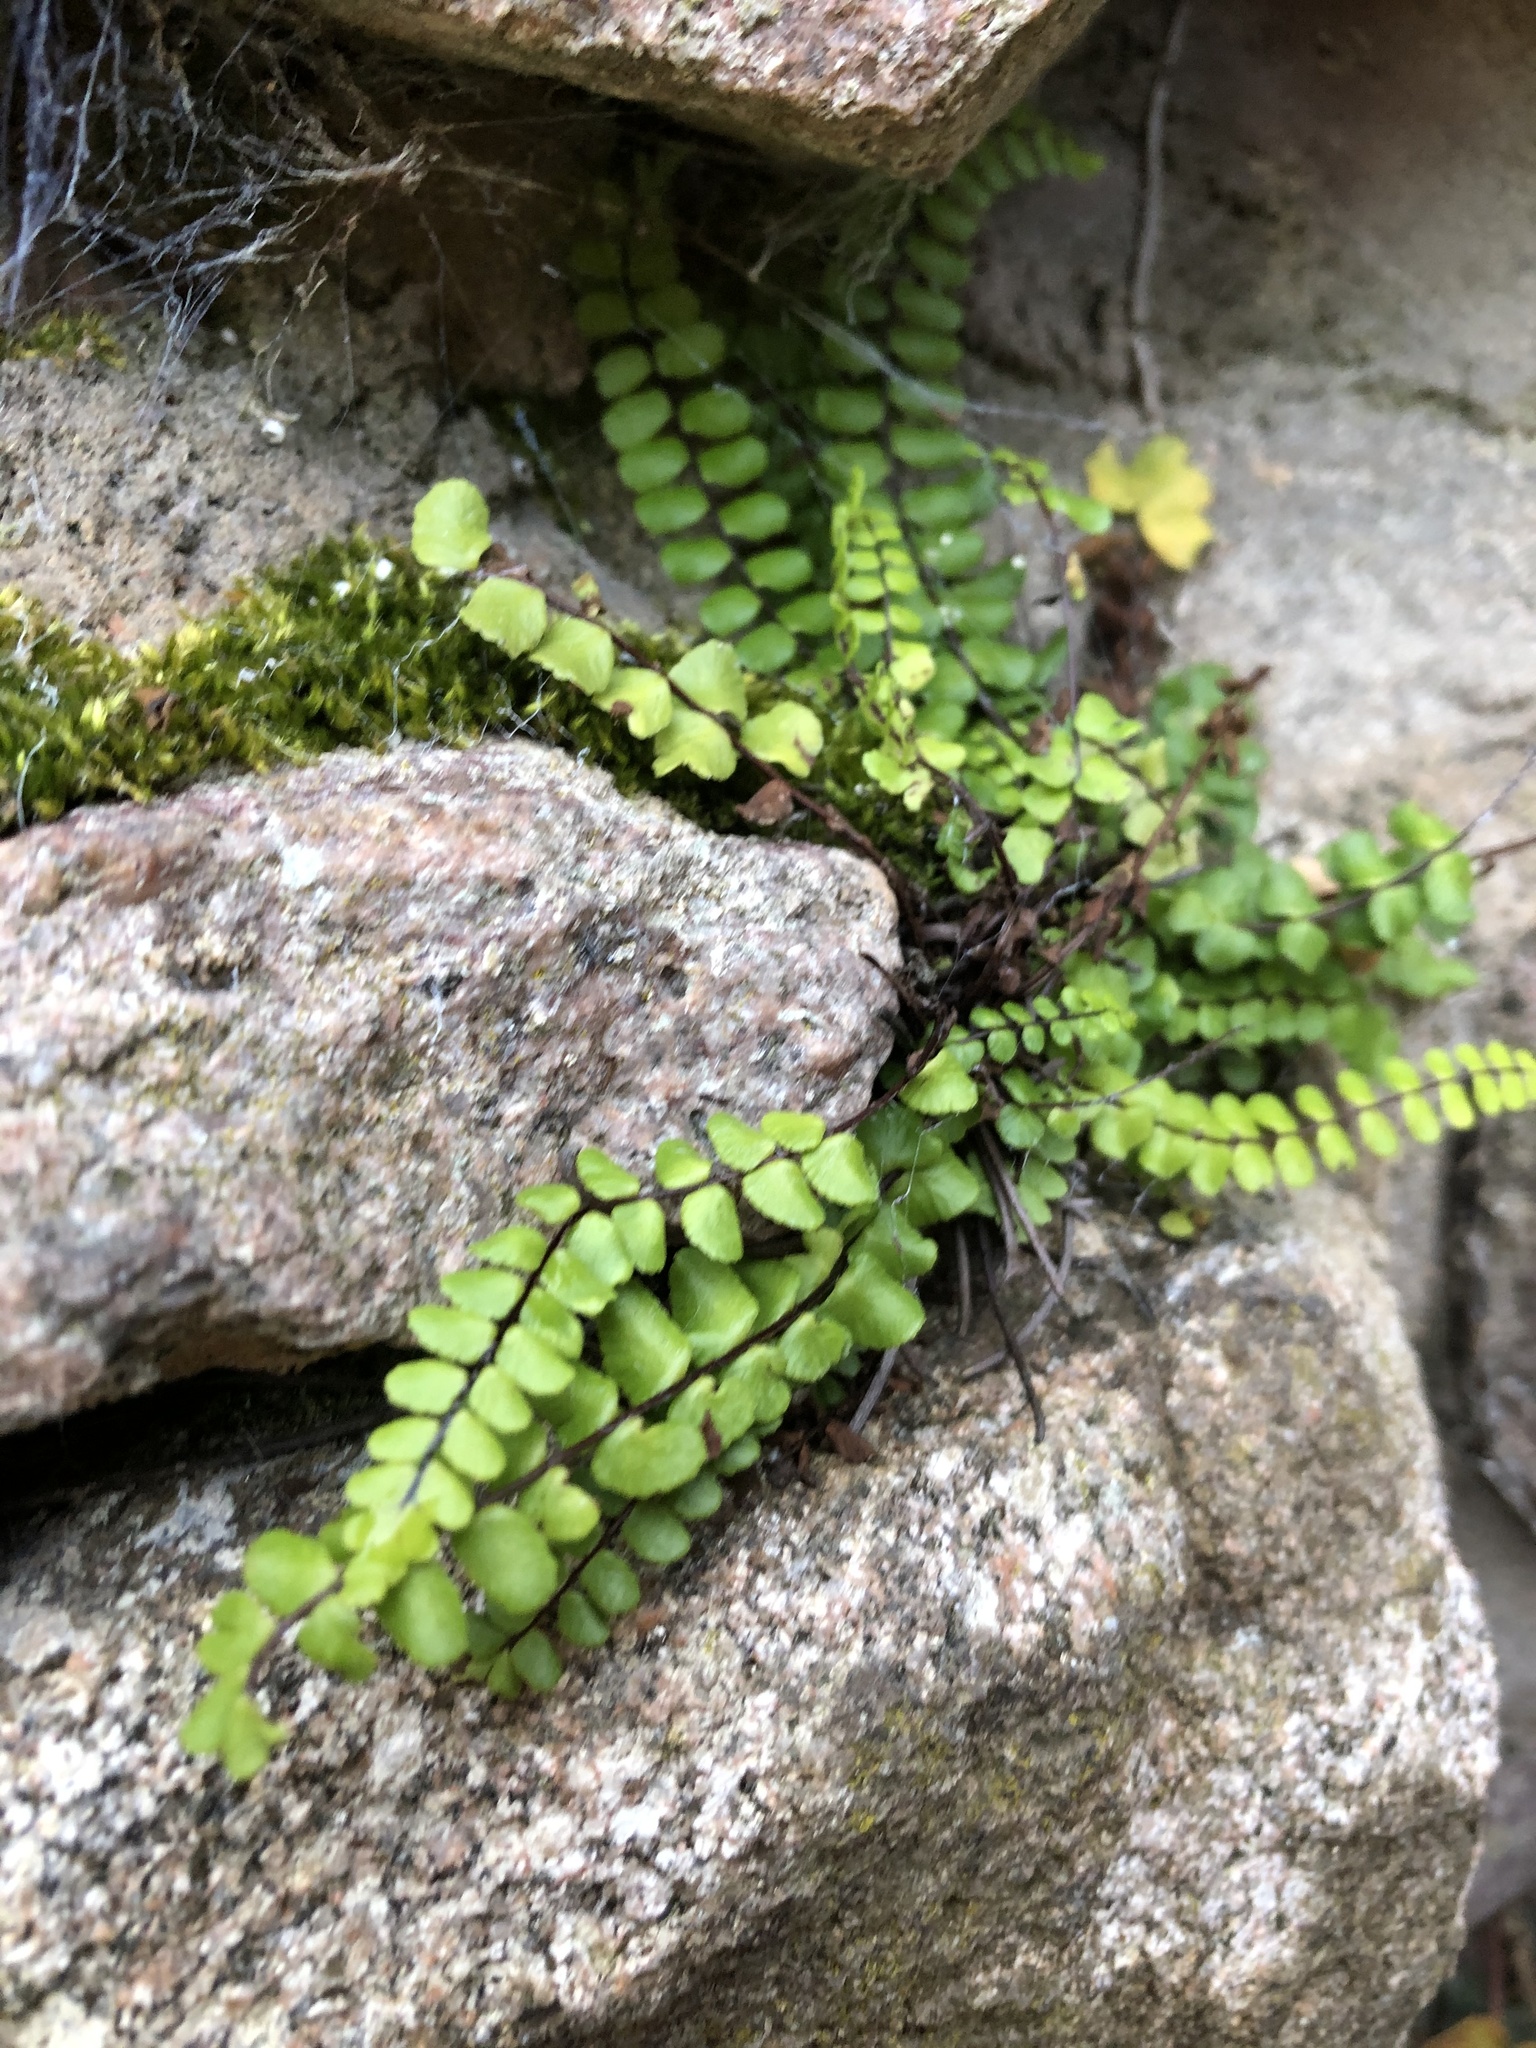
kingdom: Plantae
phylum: Tracheophyta
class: Polypodiopsida
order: Polypodiales
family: Aspleniaceae
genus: Asplenium
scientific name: Asplenium trichomanes
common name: Maidenhair spleenwort
